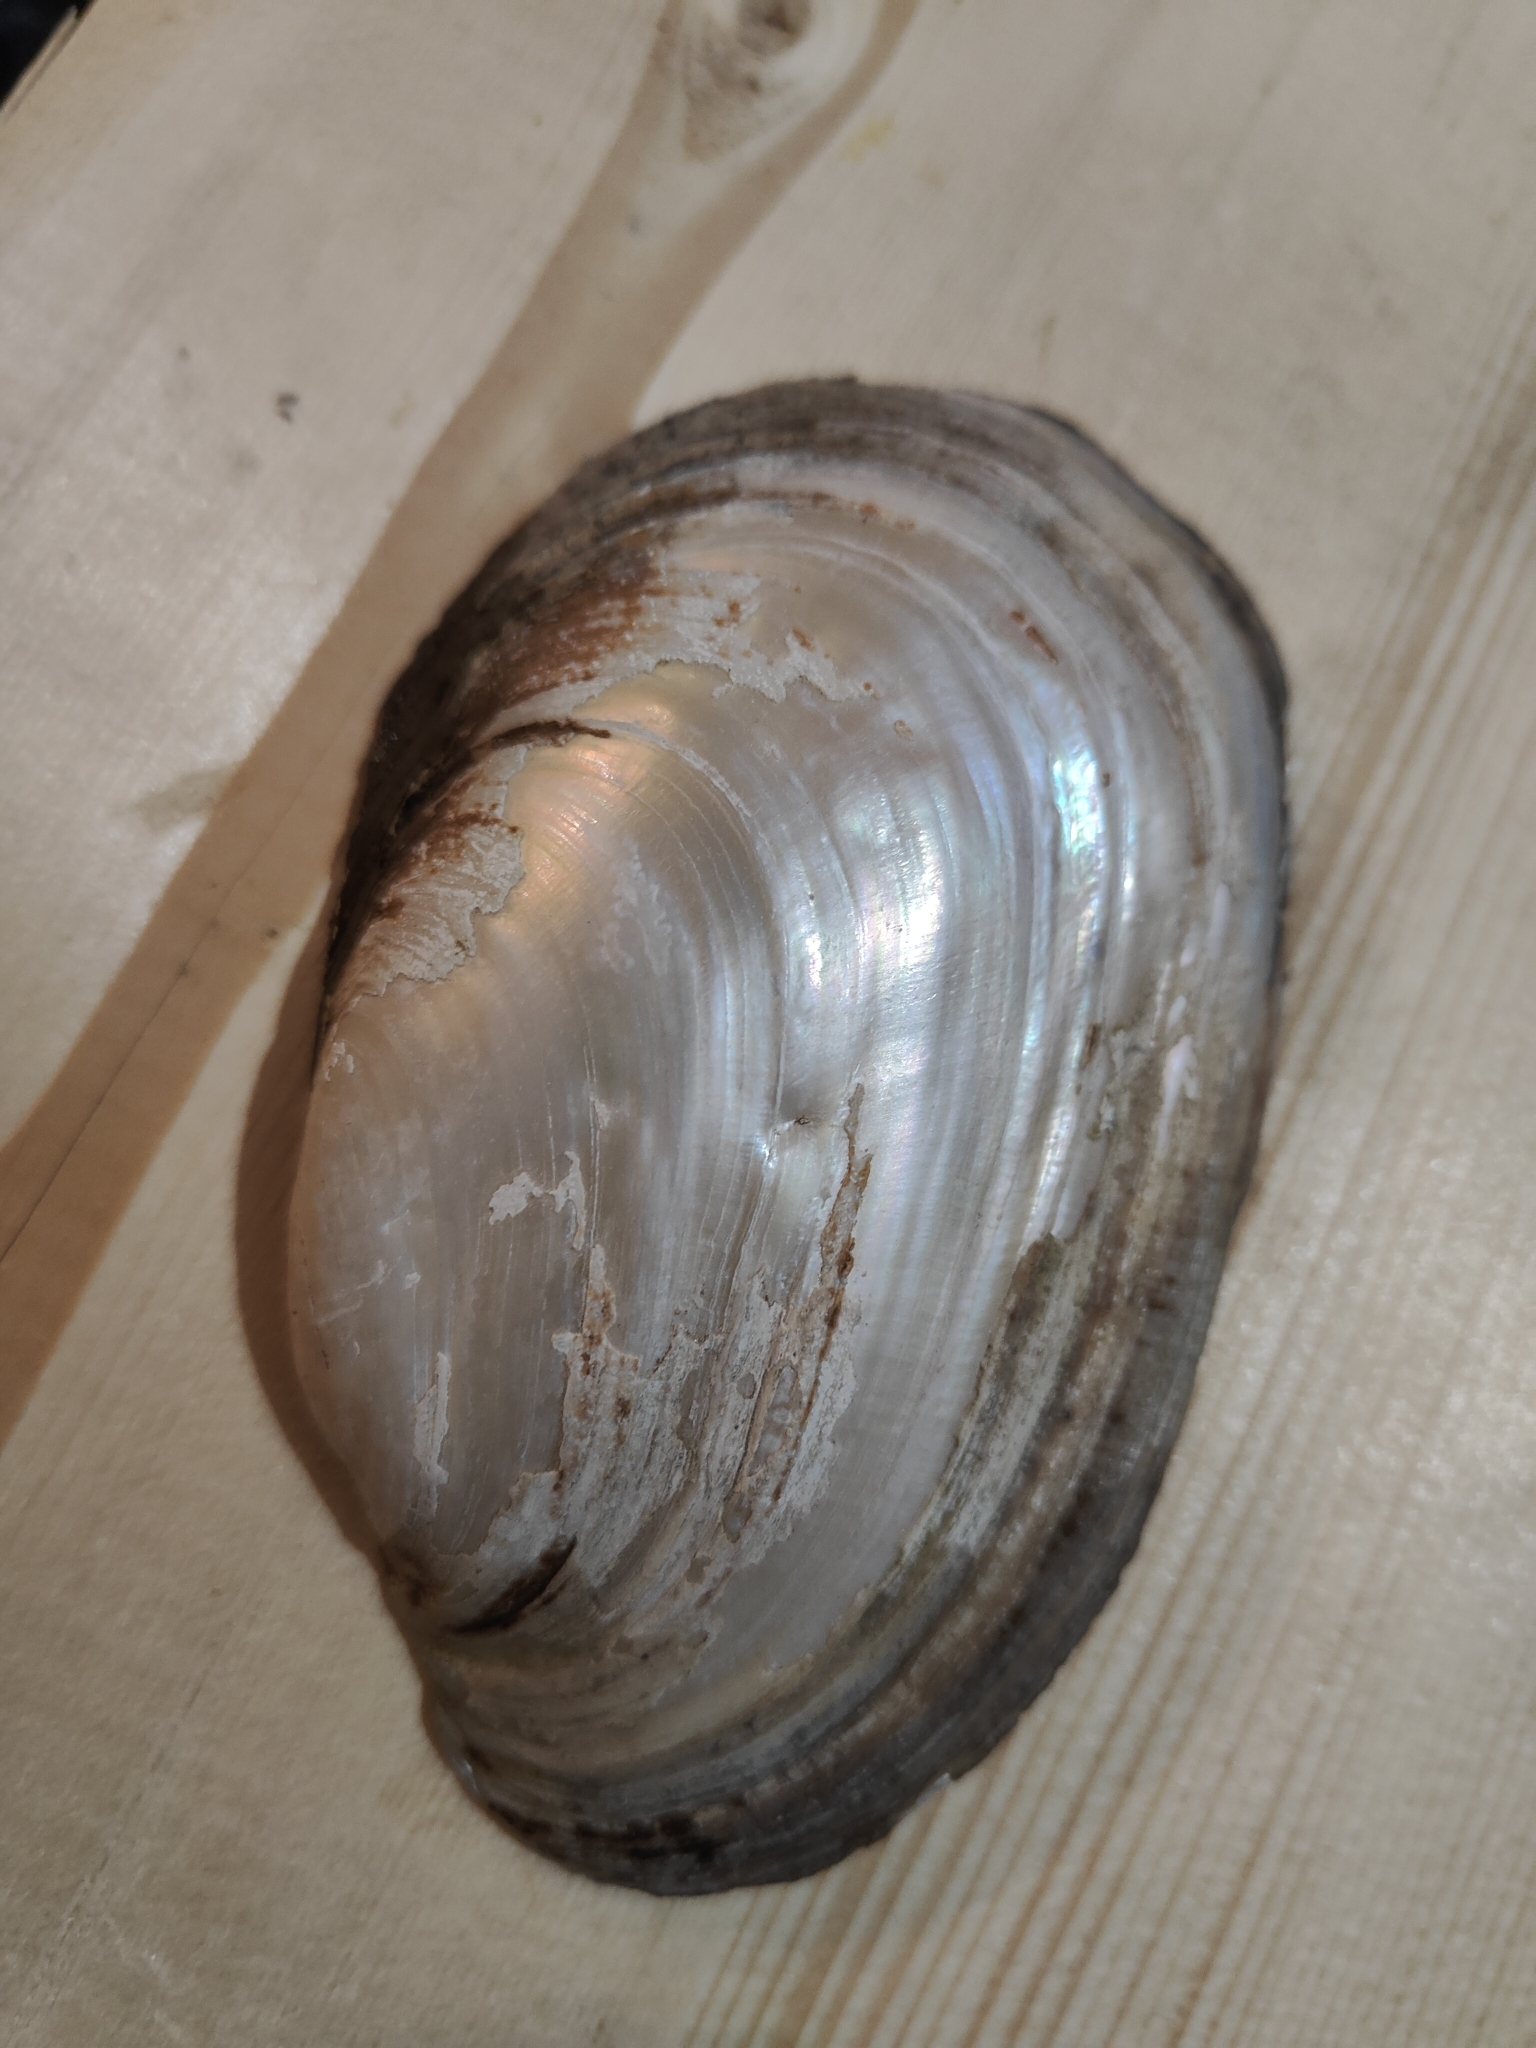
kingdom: Animalia
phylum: Mollusca
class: Bivalvia
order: Unionida
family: Unionidae
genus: Potamilus
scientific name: Potamilus fragilis
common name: Fragile papershell
